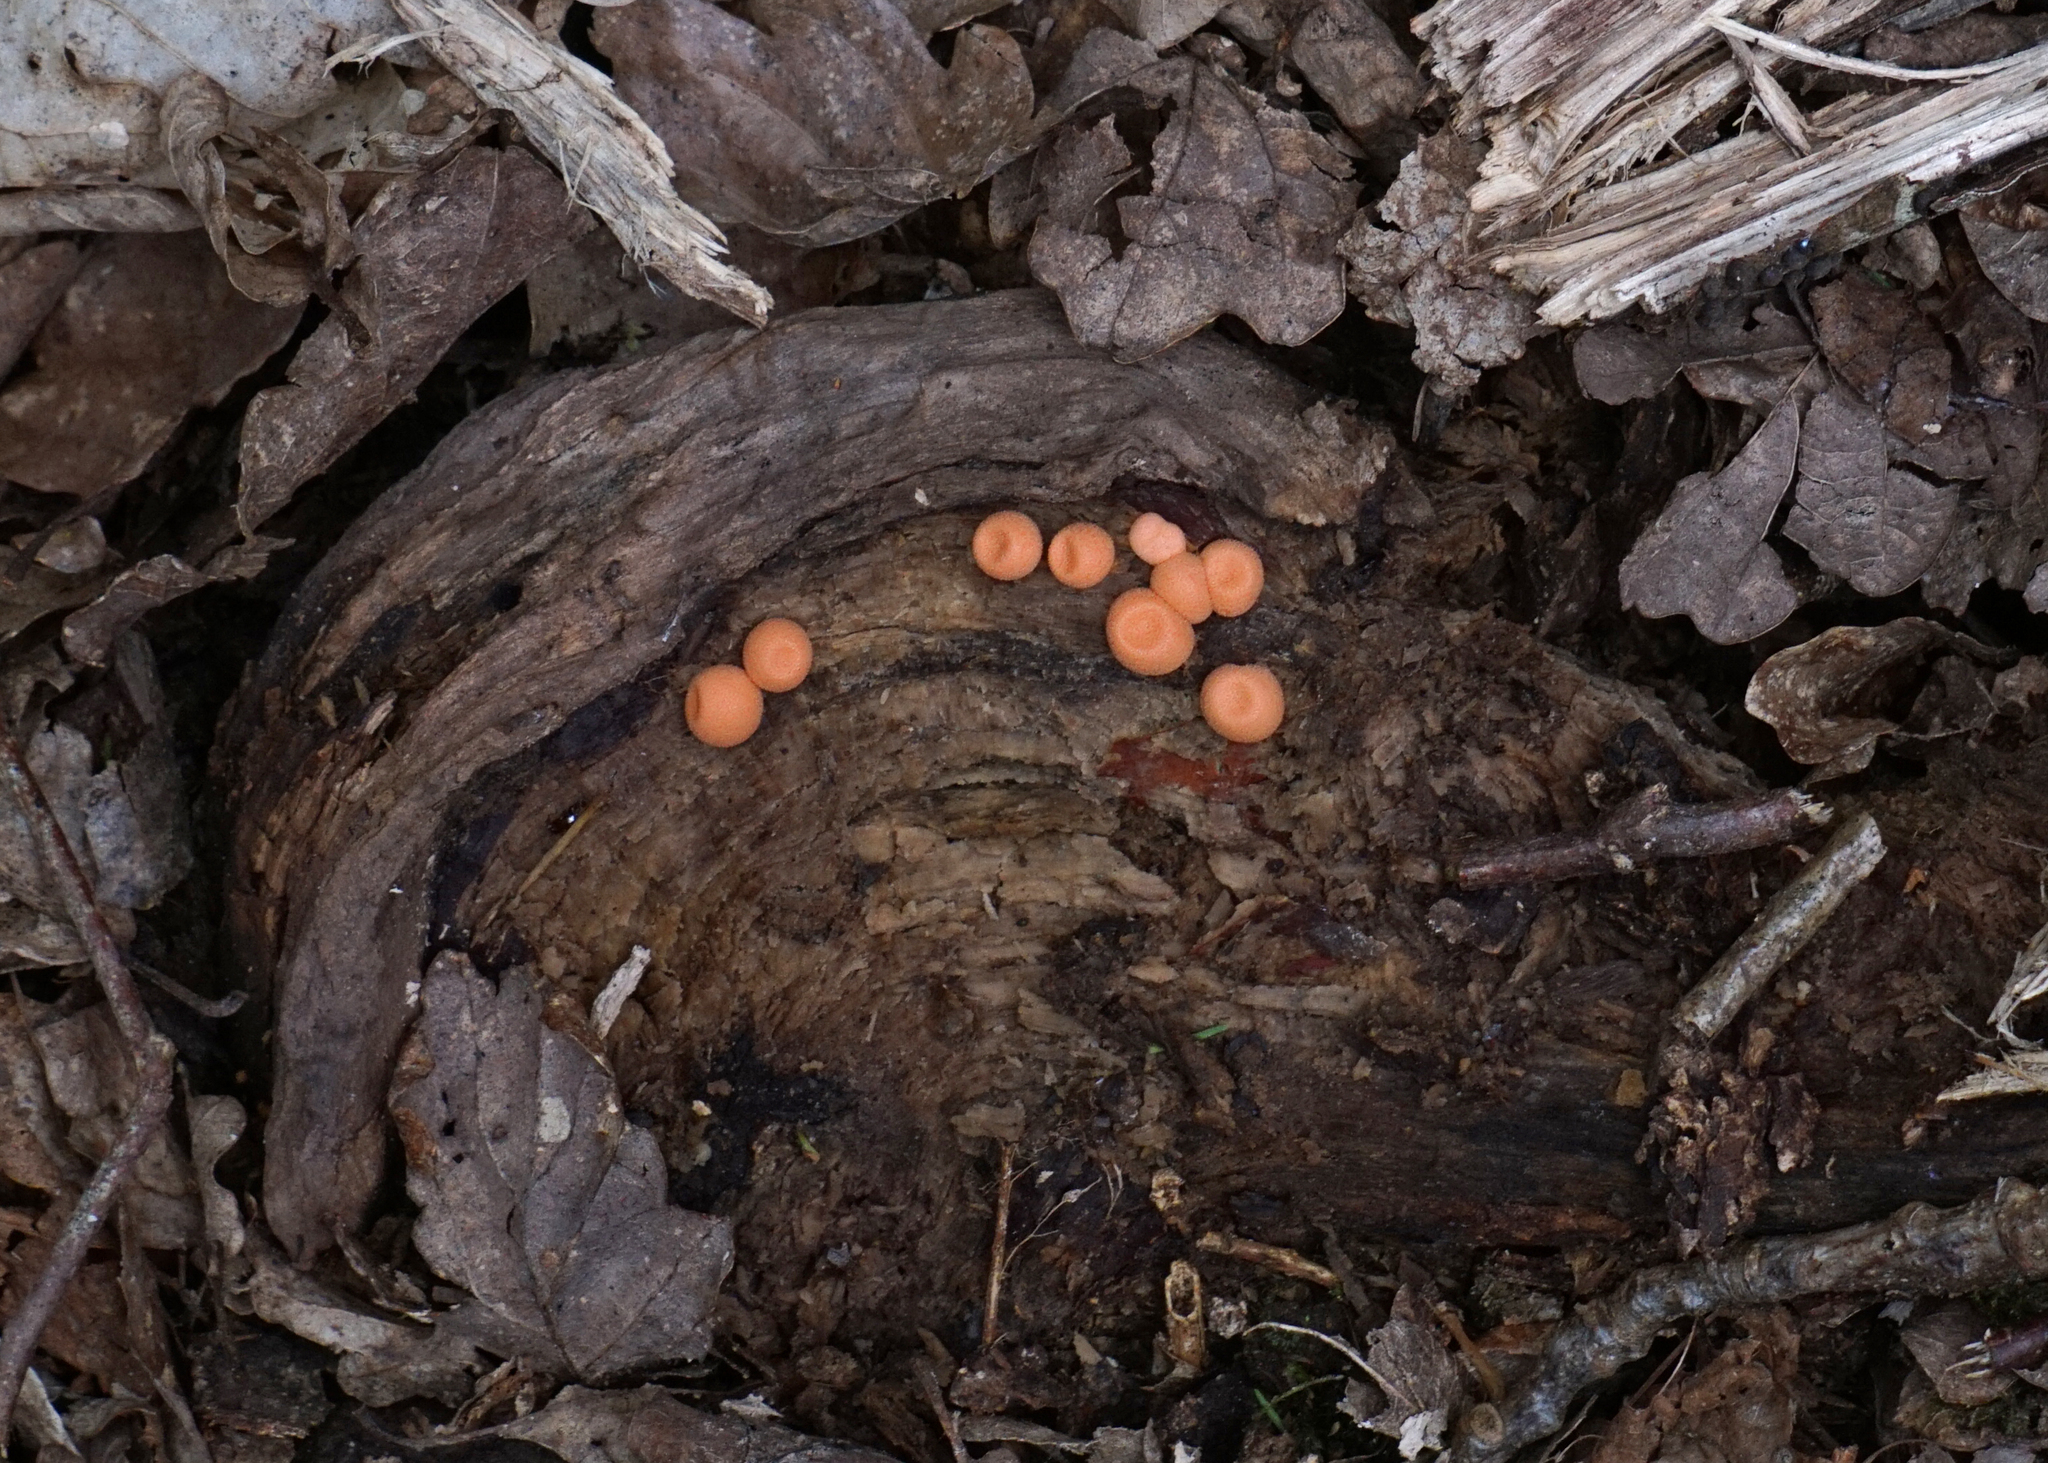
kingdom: Protozoa
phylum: Mycetozoa
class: Myxomycetes
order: Cribrariales
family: Tubiferaceae
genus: Lycogala
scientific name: Lycogala epidendrum
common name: Wolf's milk
